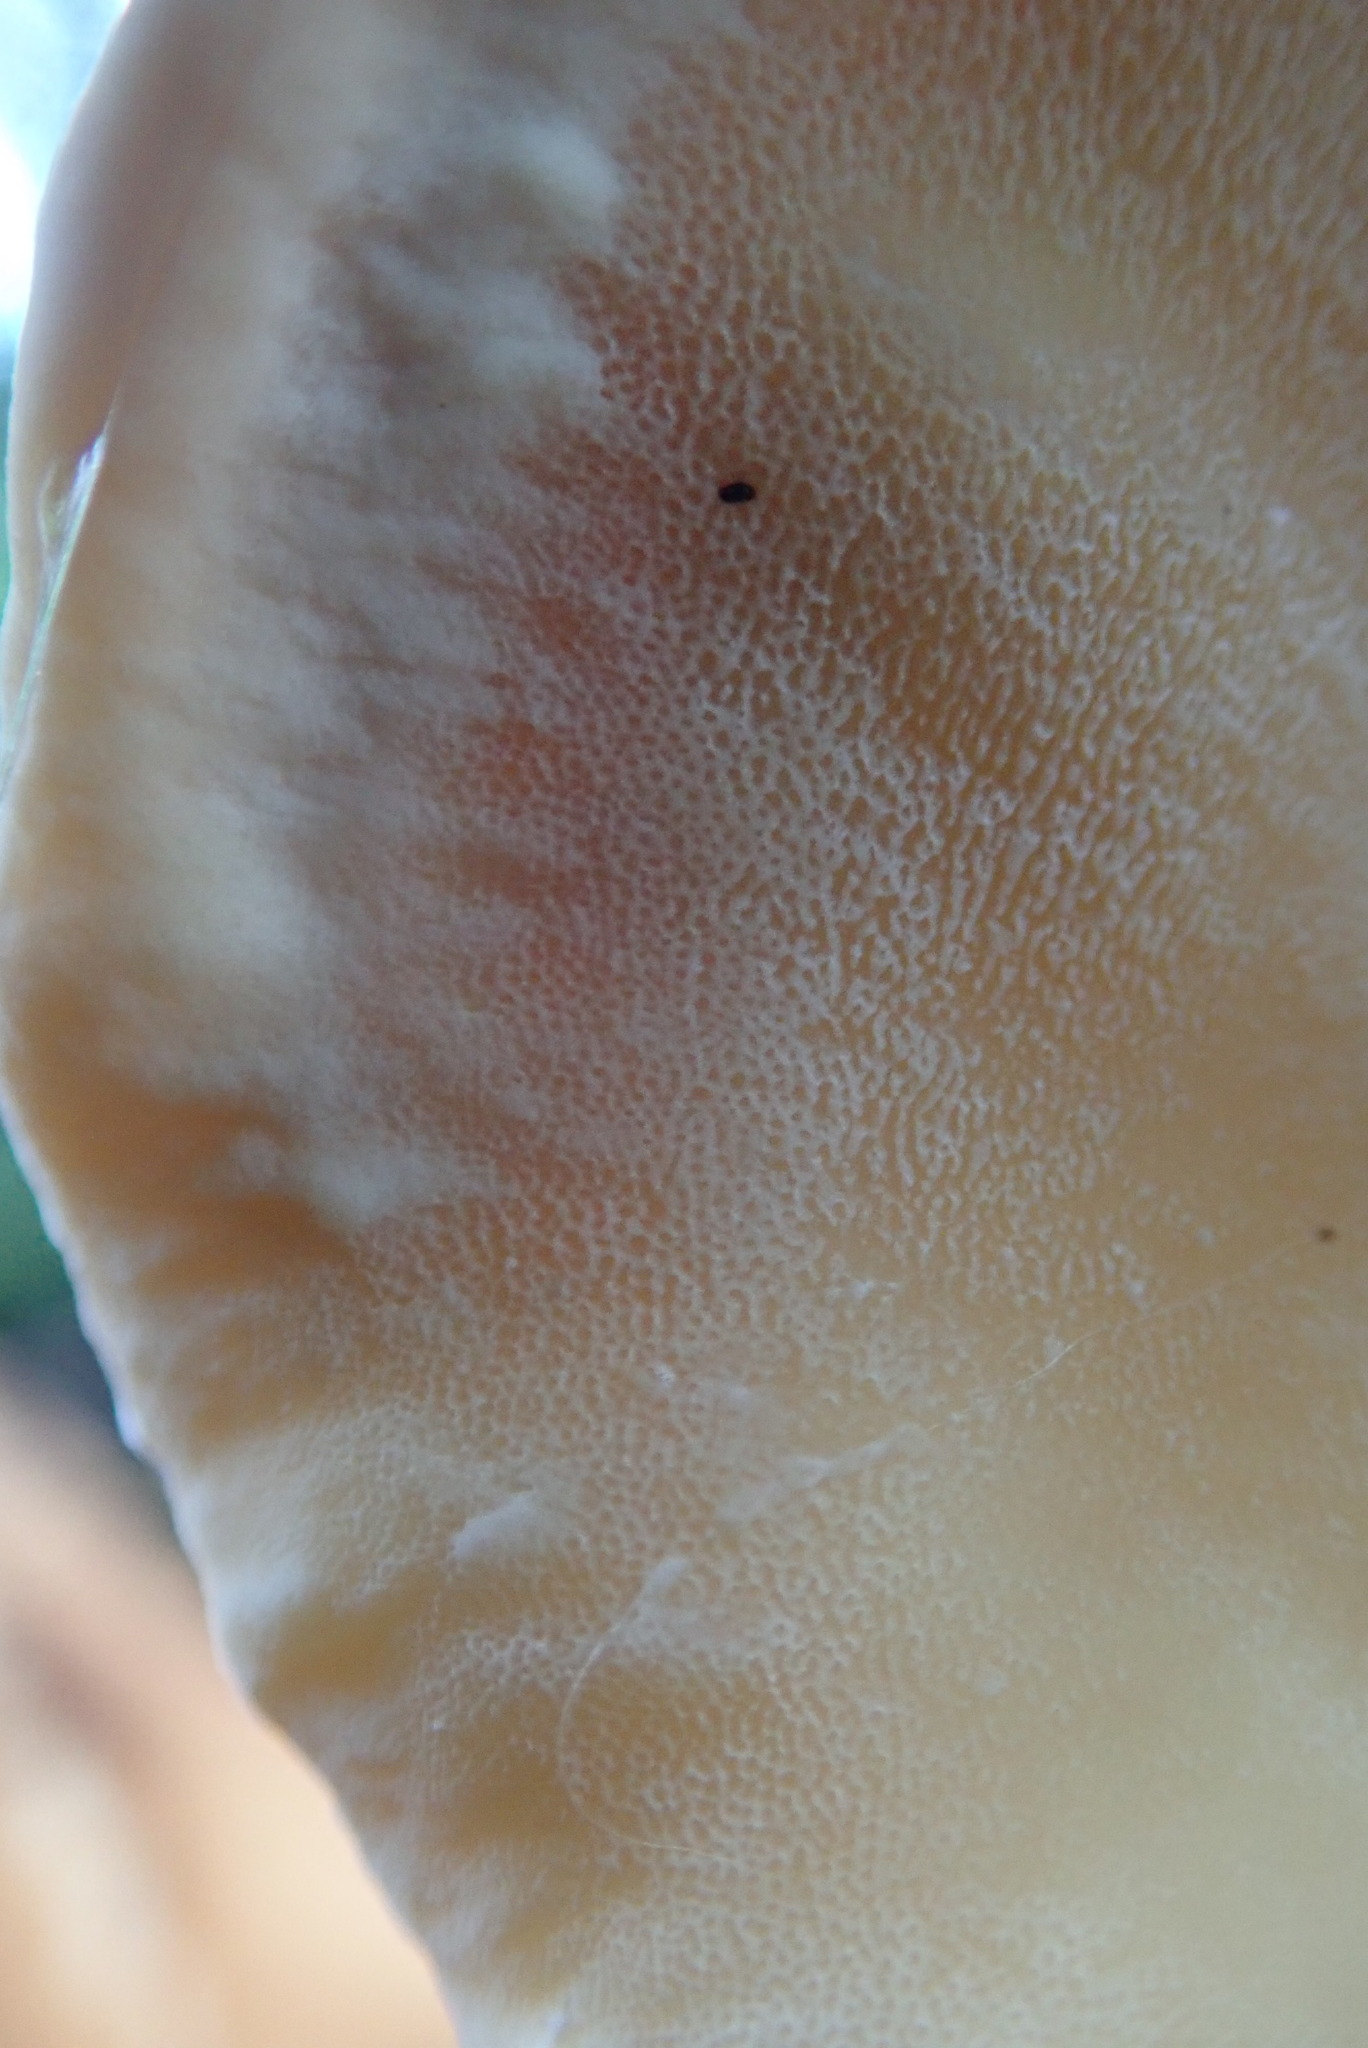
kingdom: Fungi
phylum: Basidiomycota
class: Agaricomycetes
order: Polyporales
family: Meripilaceae
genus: Meripilus
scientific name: Meripilus giganteus
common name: Giant polypore
